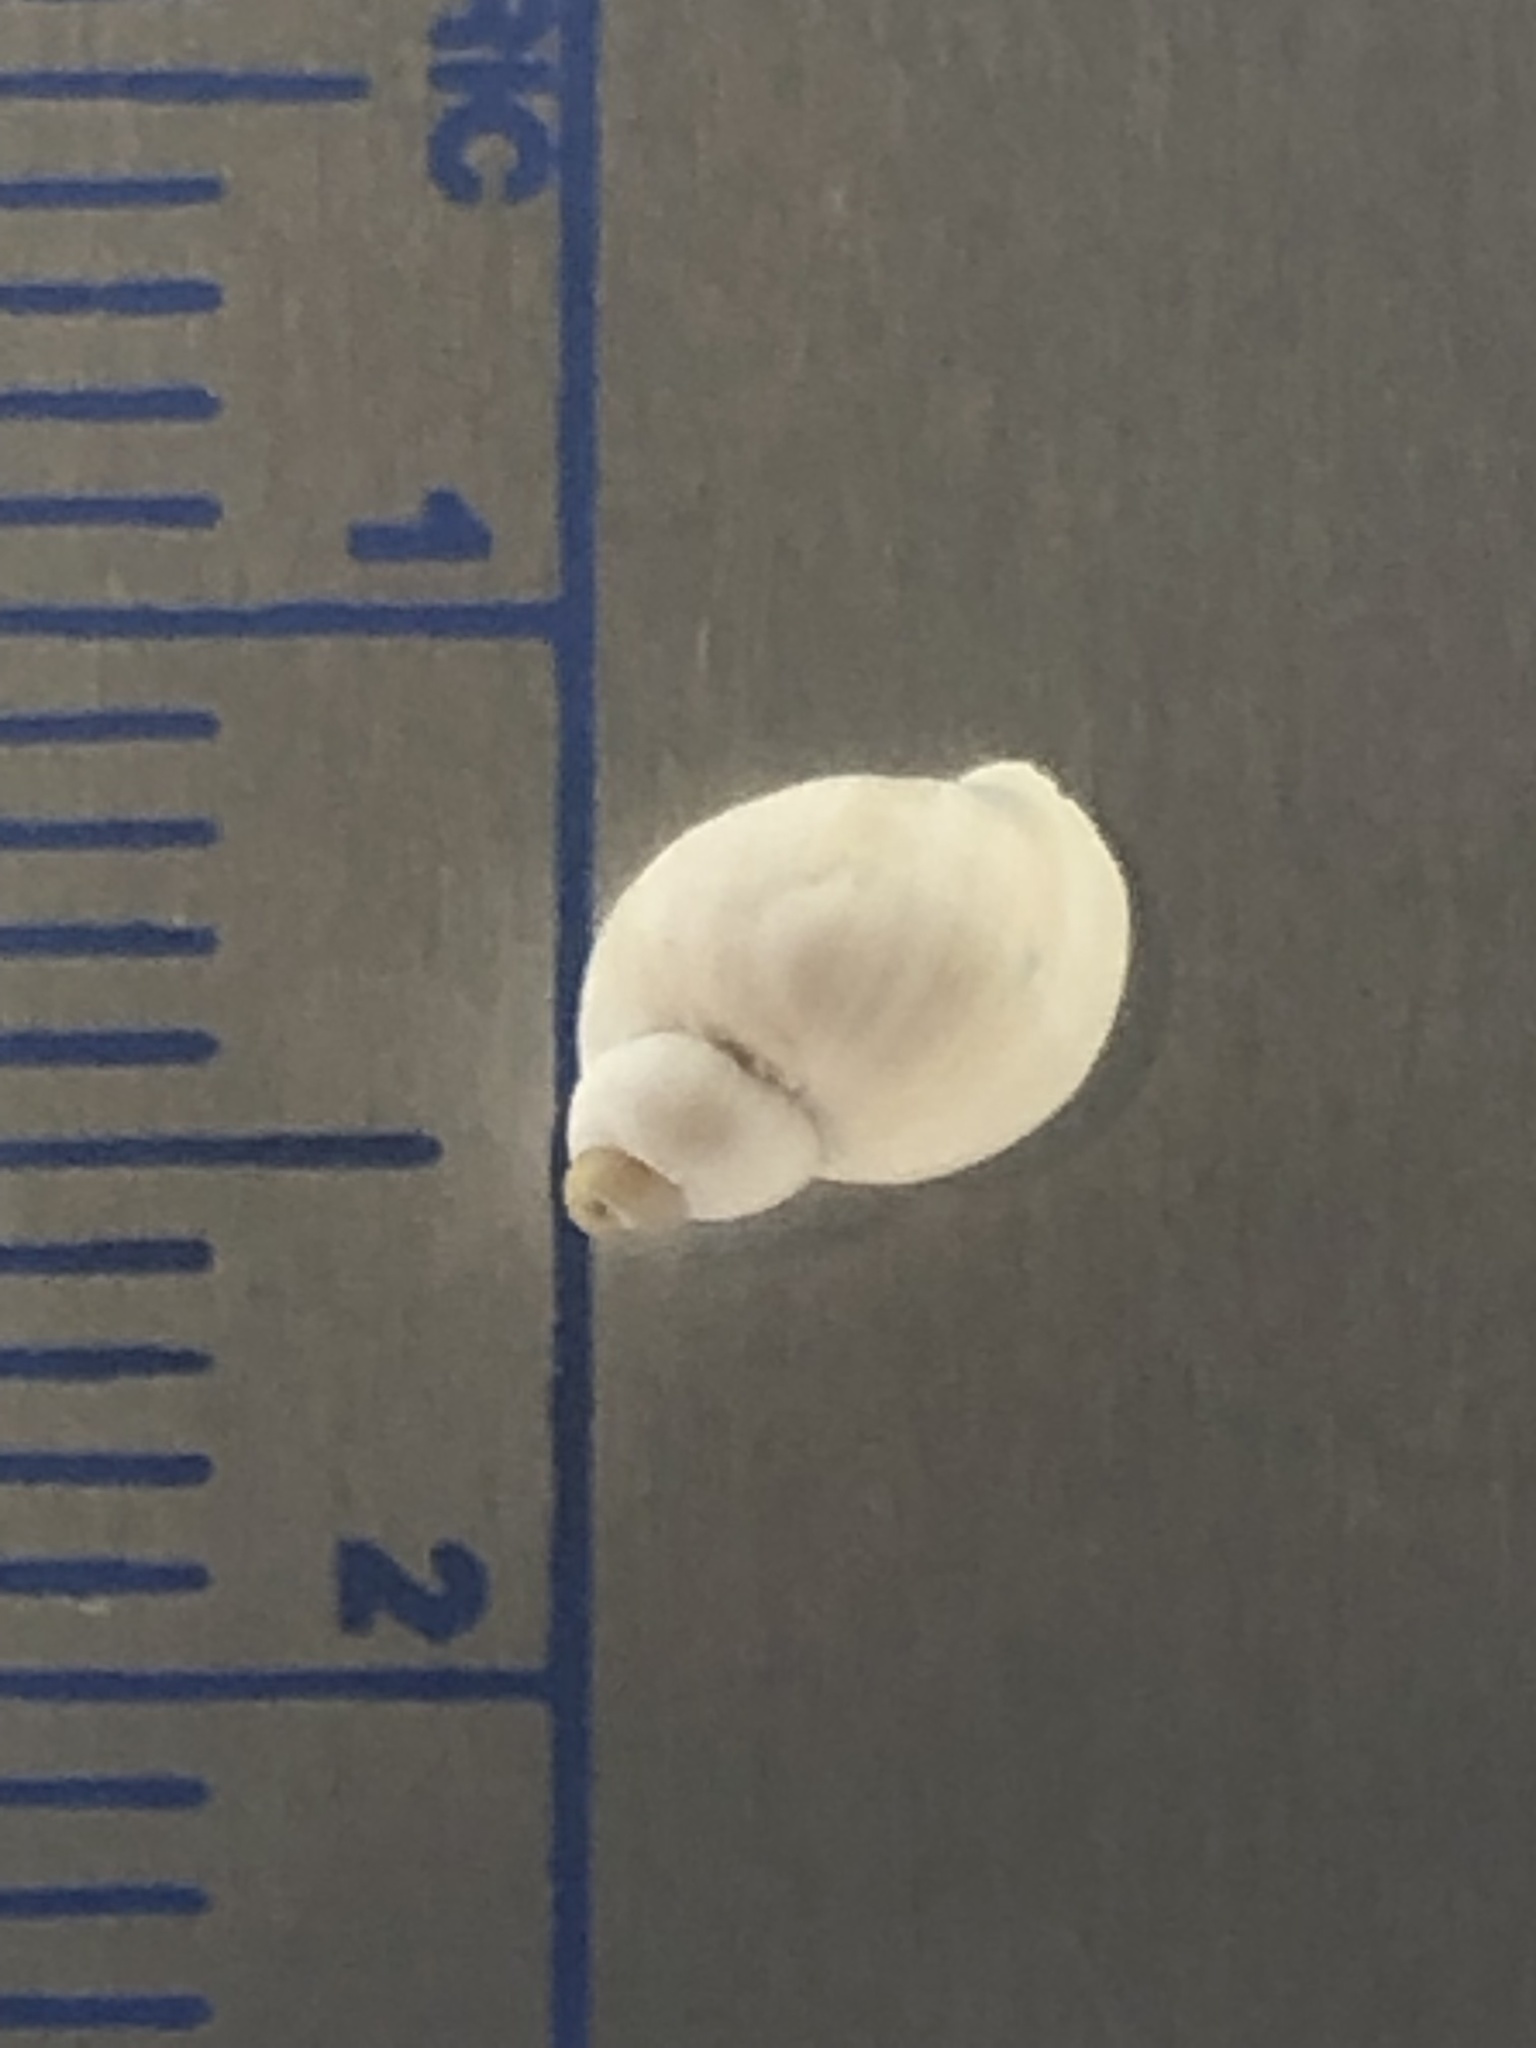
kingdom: Animalia
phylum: Mollusca
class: Gastropoda
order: Littorinimorpha
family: Bithyniidae
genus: Bithynia
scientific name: Bithynia tentaculata
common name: Common bithynia
